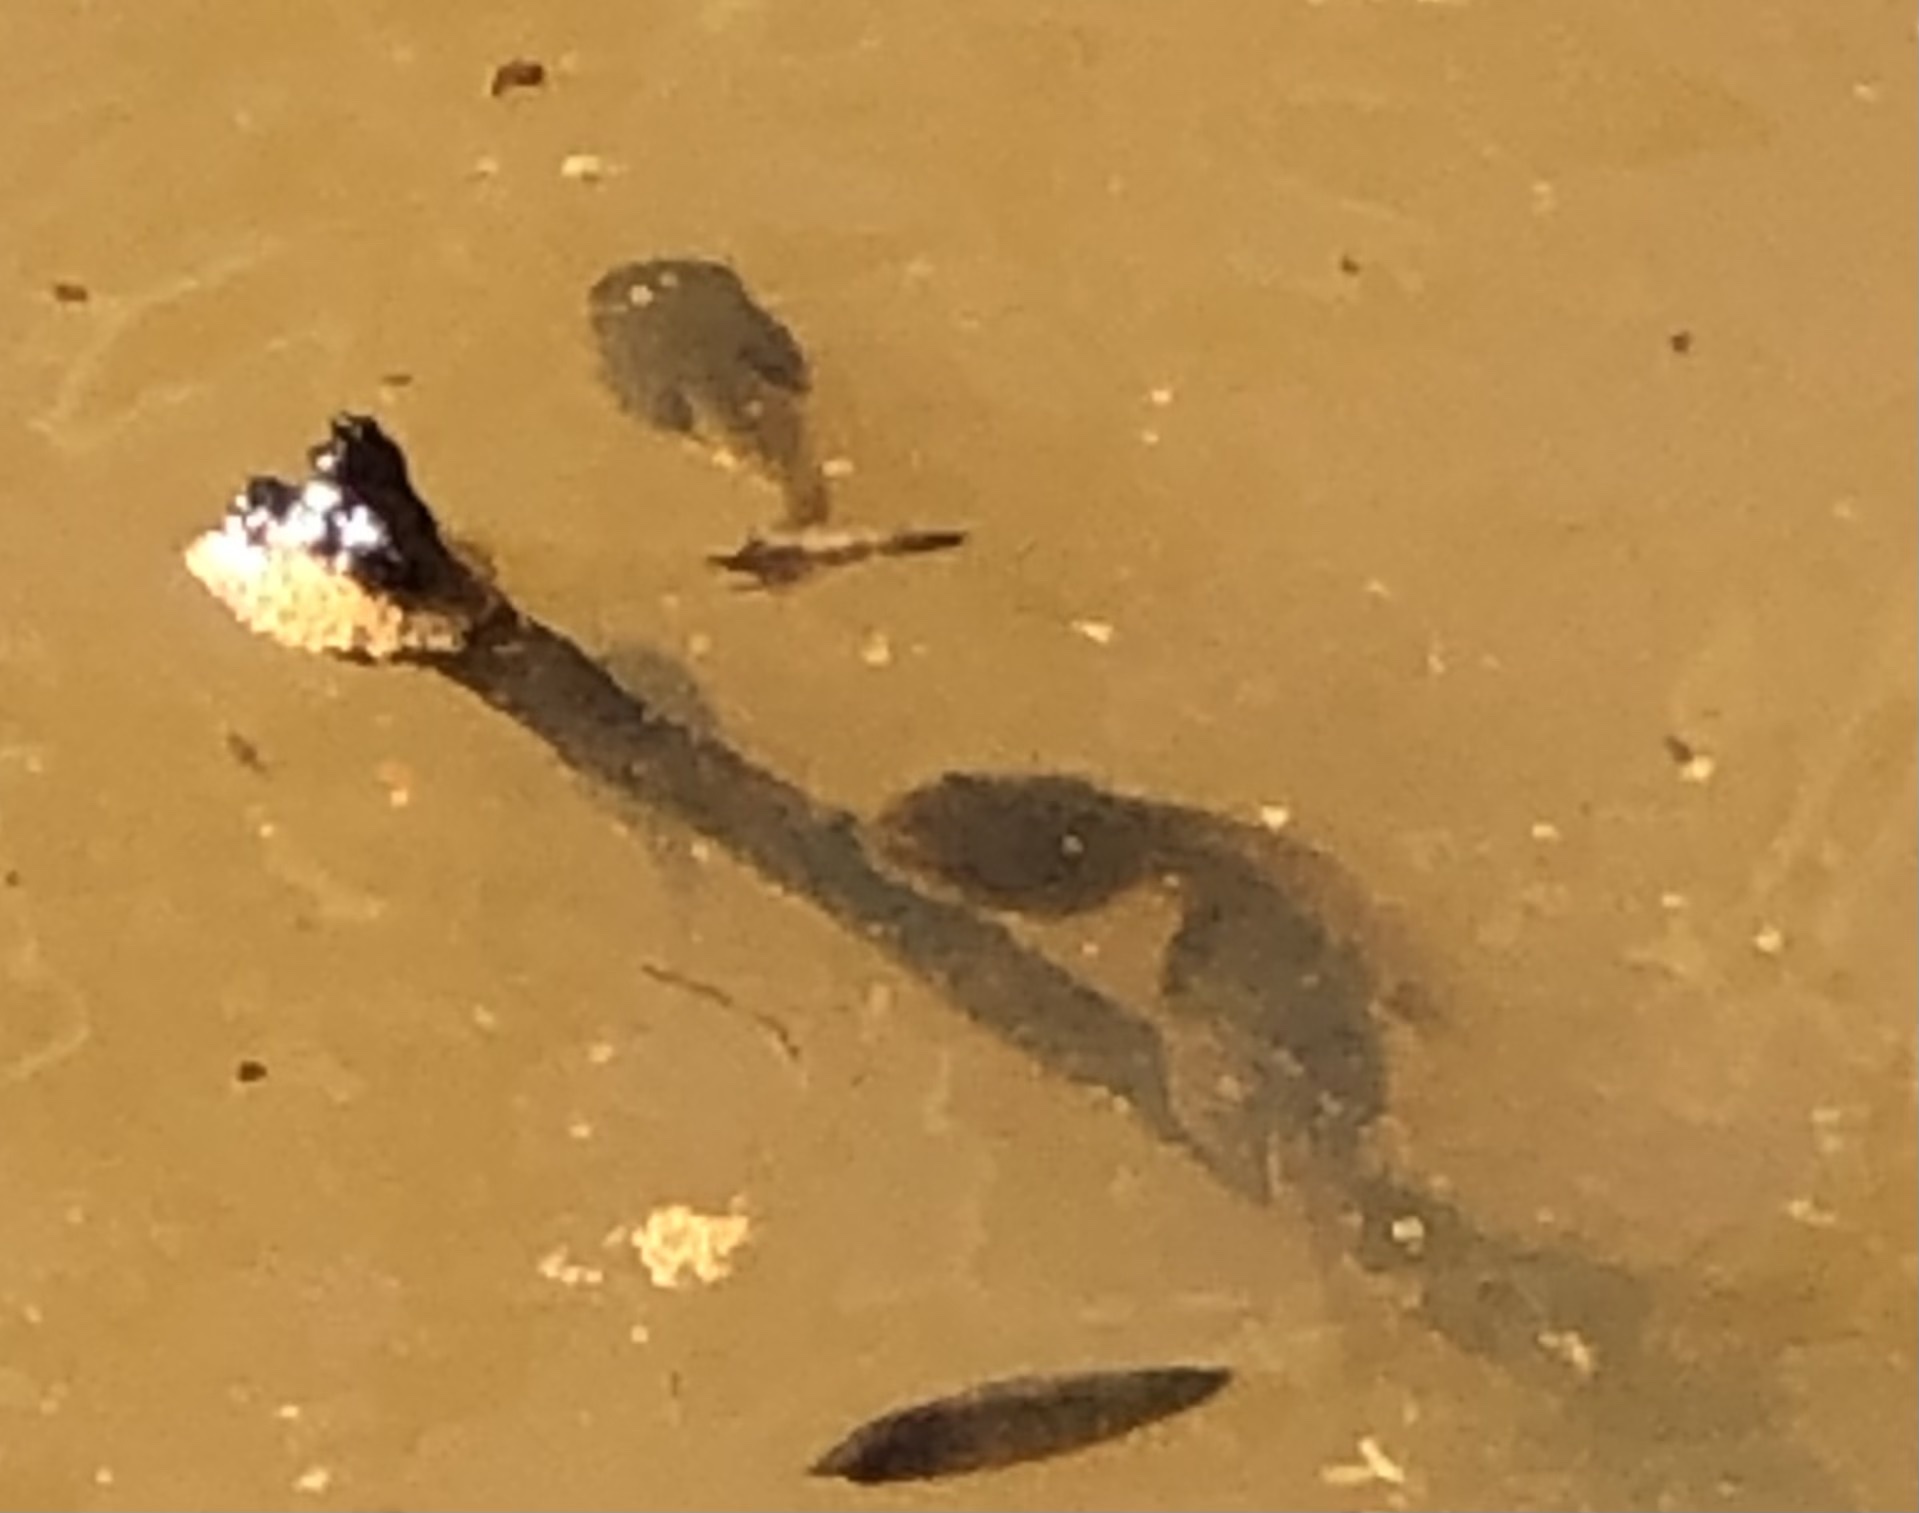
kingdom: Animalia
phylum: Chordata
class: Amphibia
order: Anura
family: Ranidae
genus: Lithobates
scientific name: Lithobates
